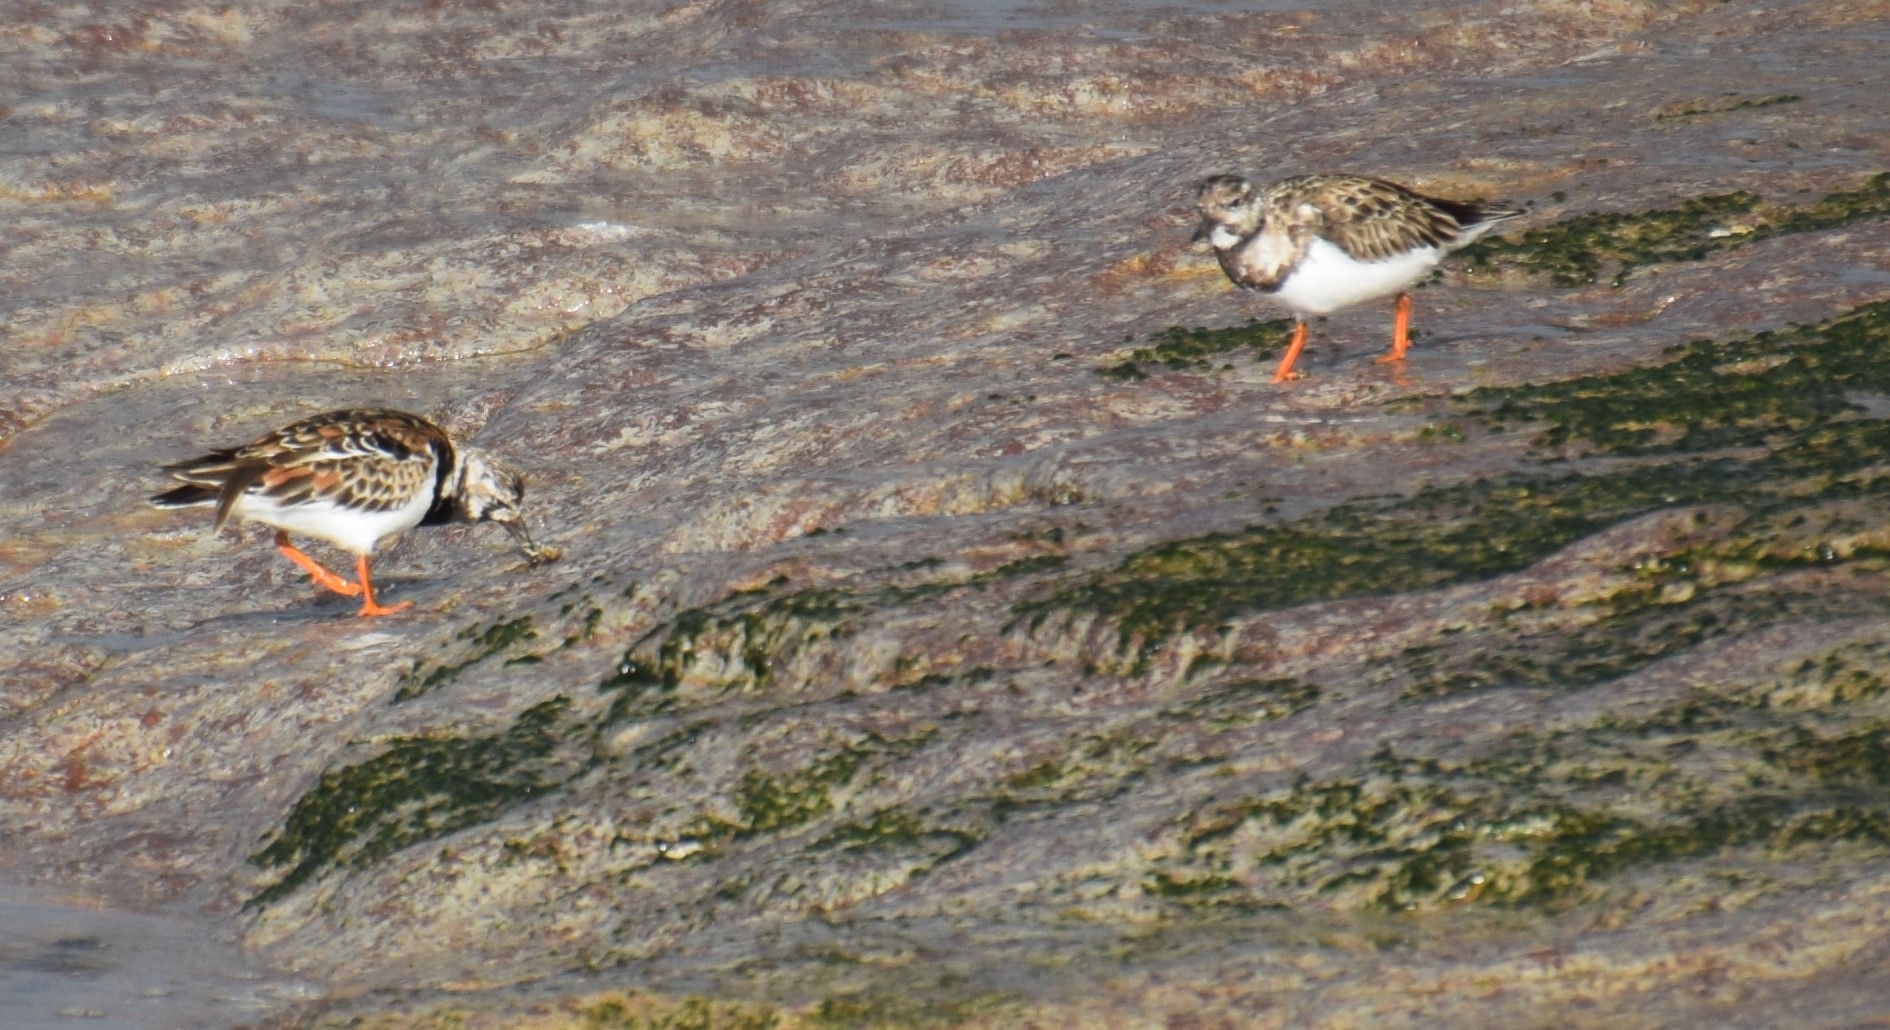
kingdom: Animalia
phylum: Chordata
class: Aves
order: Charadriiformes
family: Scolopacidae
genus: Arenaria
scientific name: Arenaria interpres
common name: Ruddy turnstone
